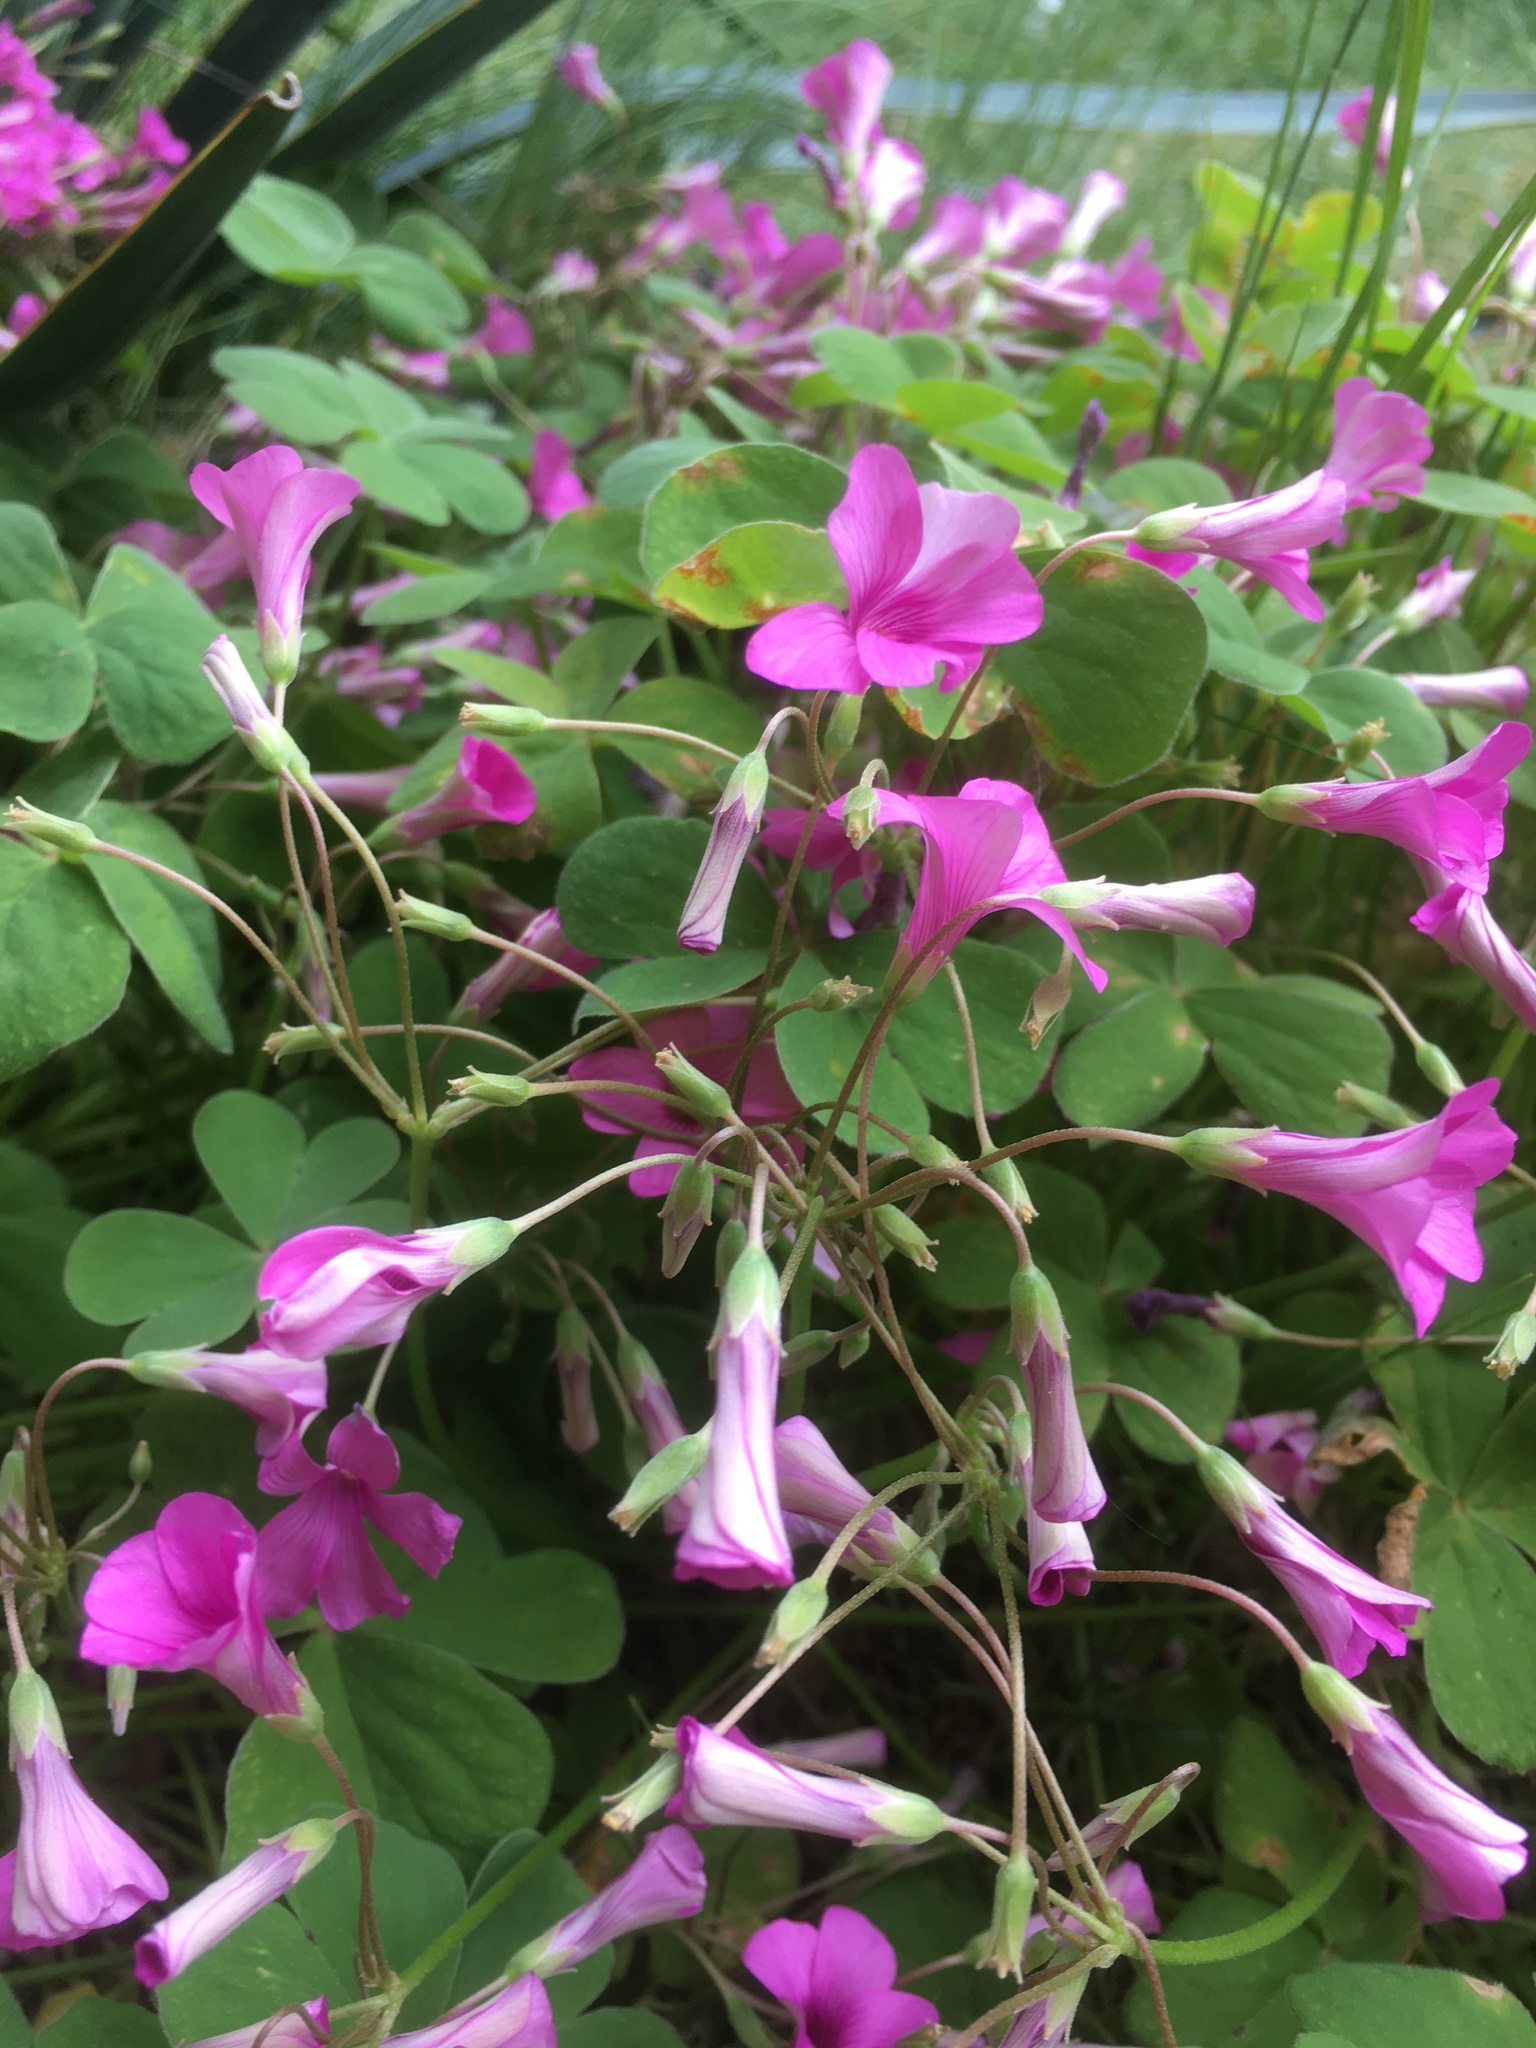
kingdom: Plantae
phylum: Tracheophyta
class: Magnoliopsida
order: Oxalidales
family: Oxalidaceae
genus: Oxalis
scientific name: Oxalis articulata
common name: Pink-sorrel
